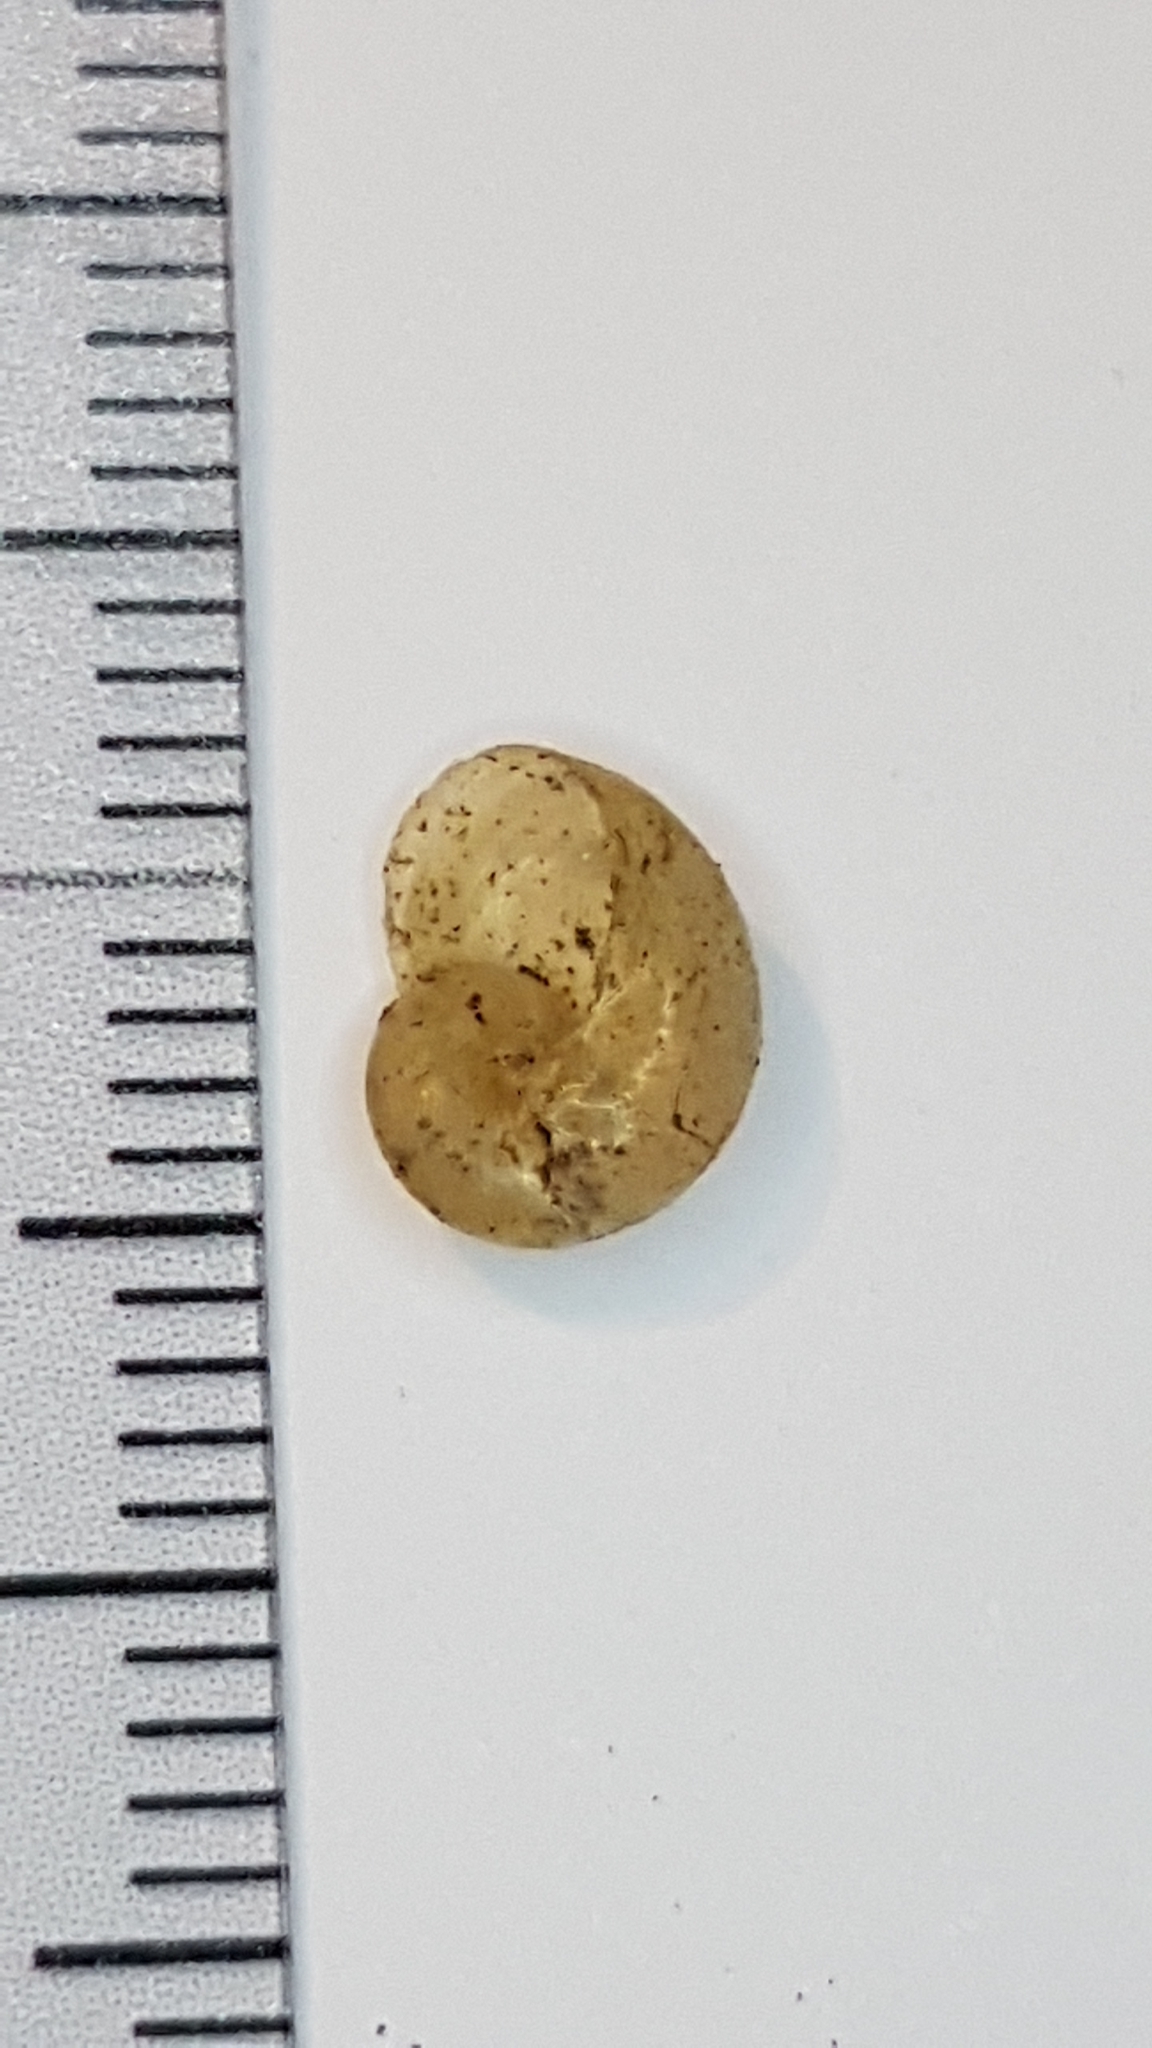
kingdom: Animalia
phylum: Mollusca
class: Gastropoda
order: Stylommatophora
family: Vitrinidae
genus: Phenacolimax
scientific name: Phenacolimax major
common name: Greater pellucid glass snail
